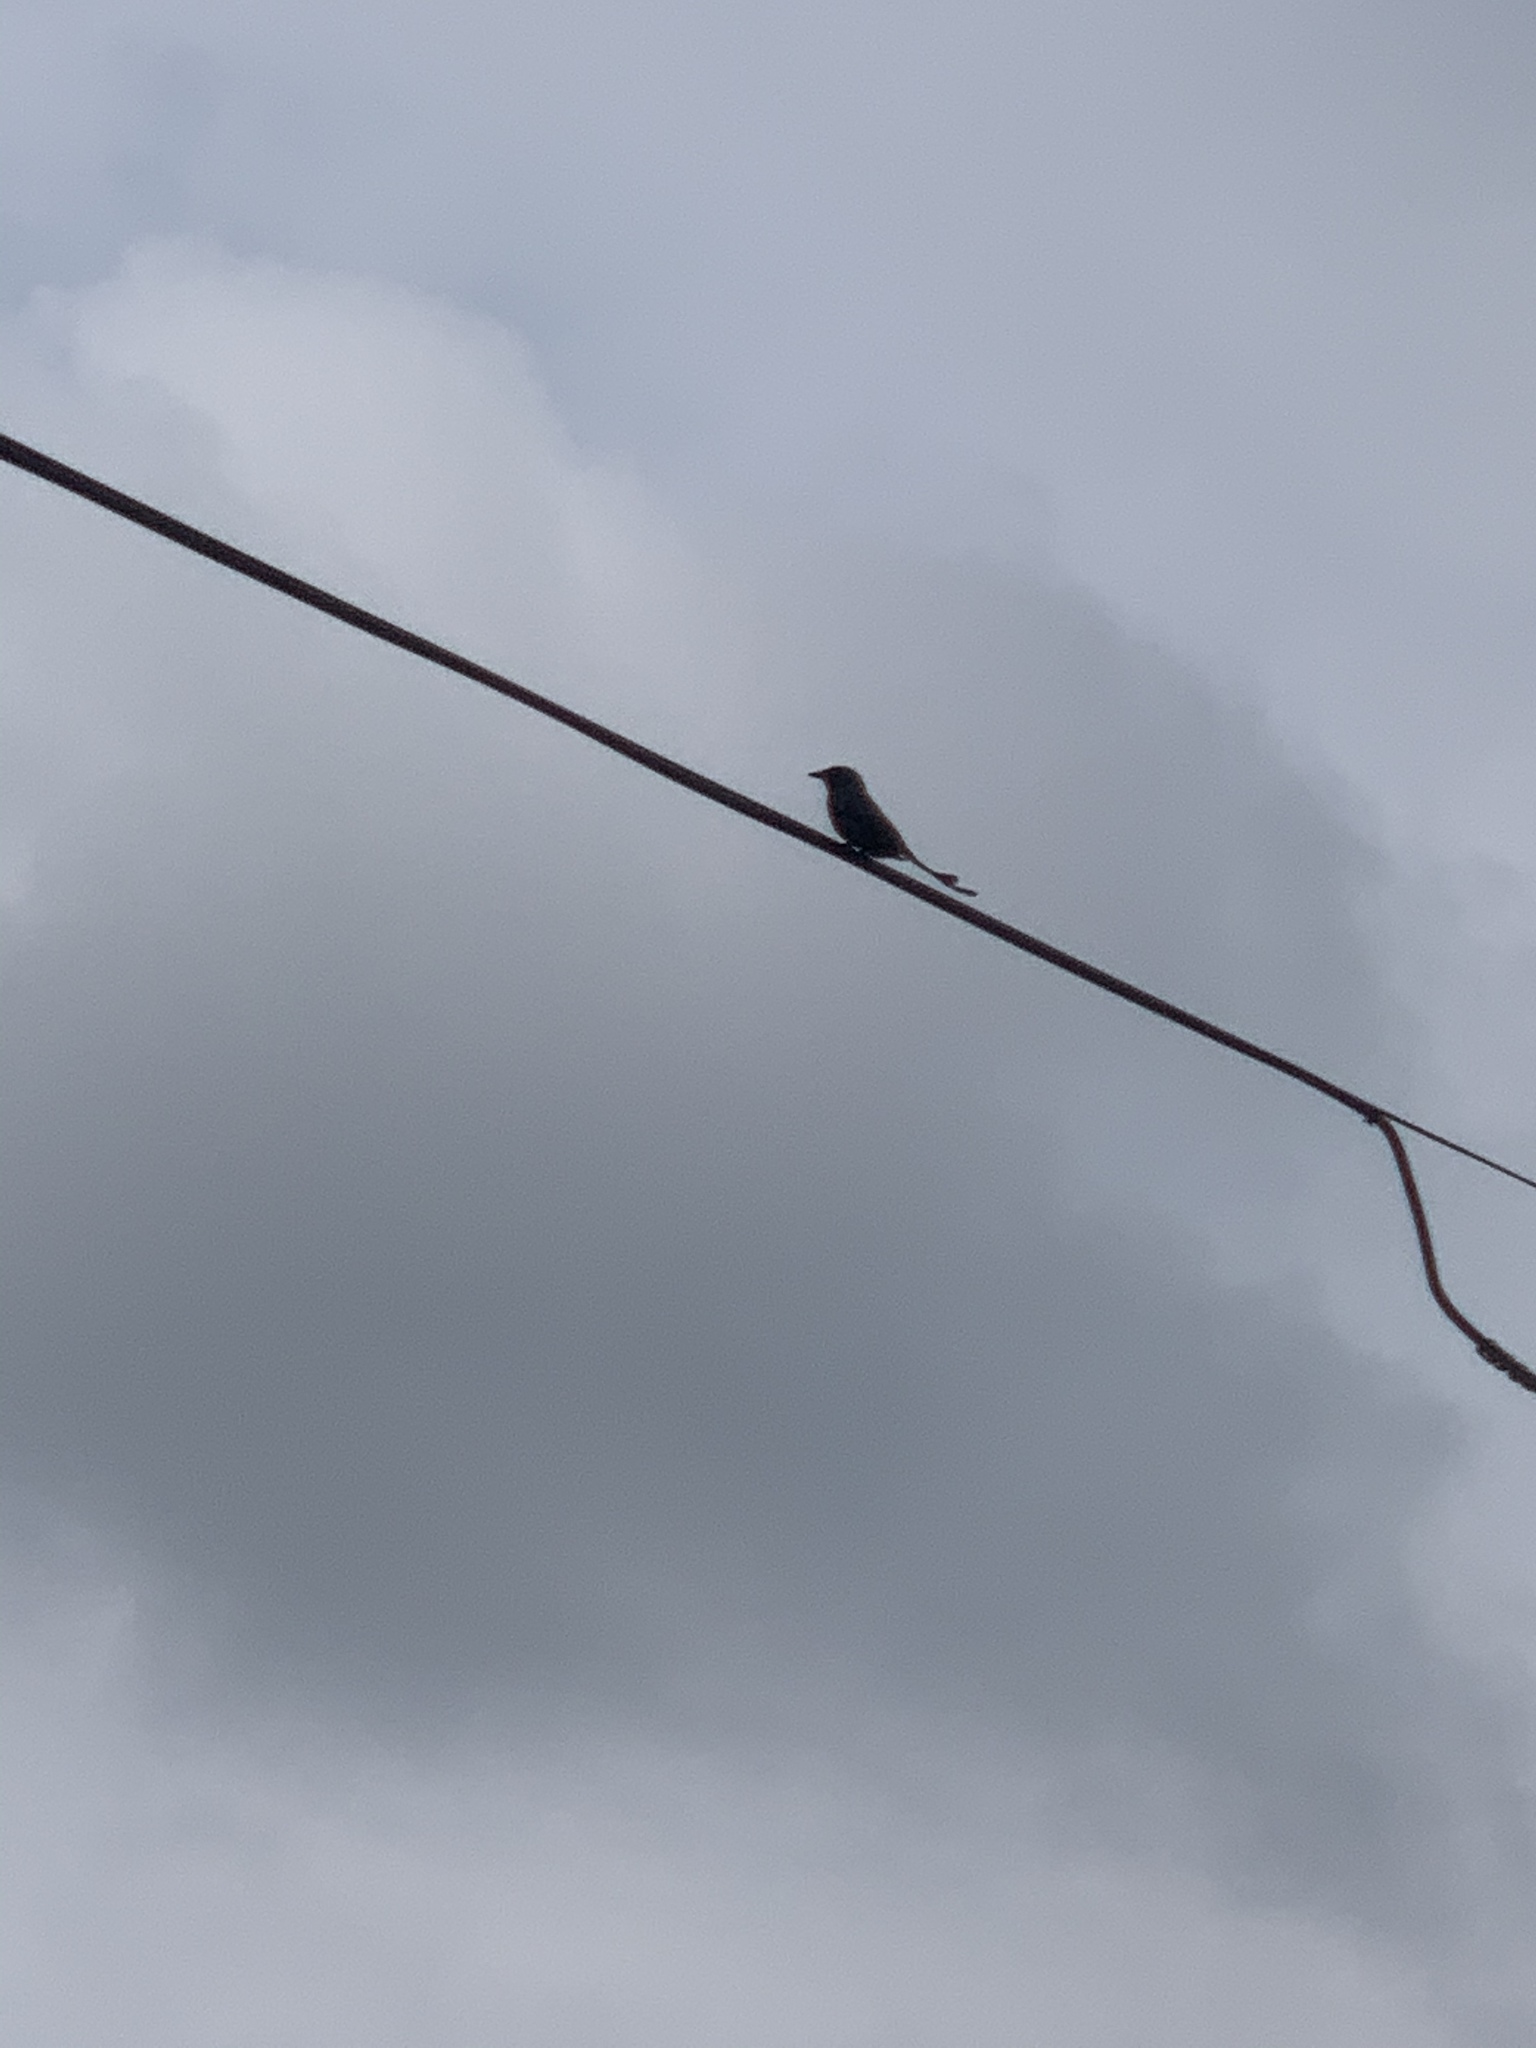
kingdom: Animalia
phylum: Chordata
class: Aves
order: Passeriformes
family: Dicruridae
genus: Dicrurus
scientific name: Dicrurus macrocercus
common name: Black drongo
